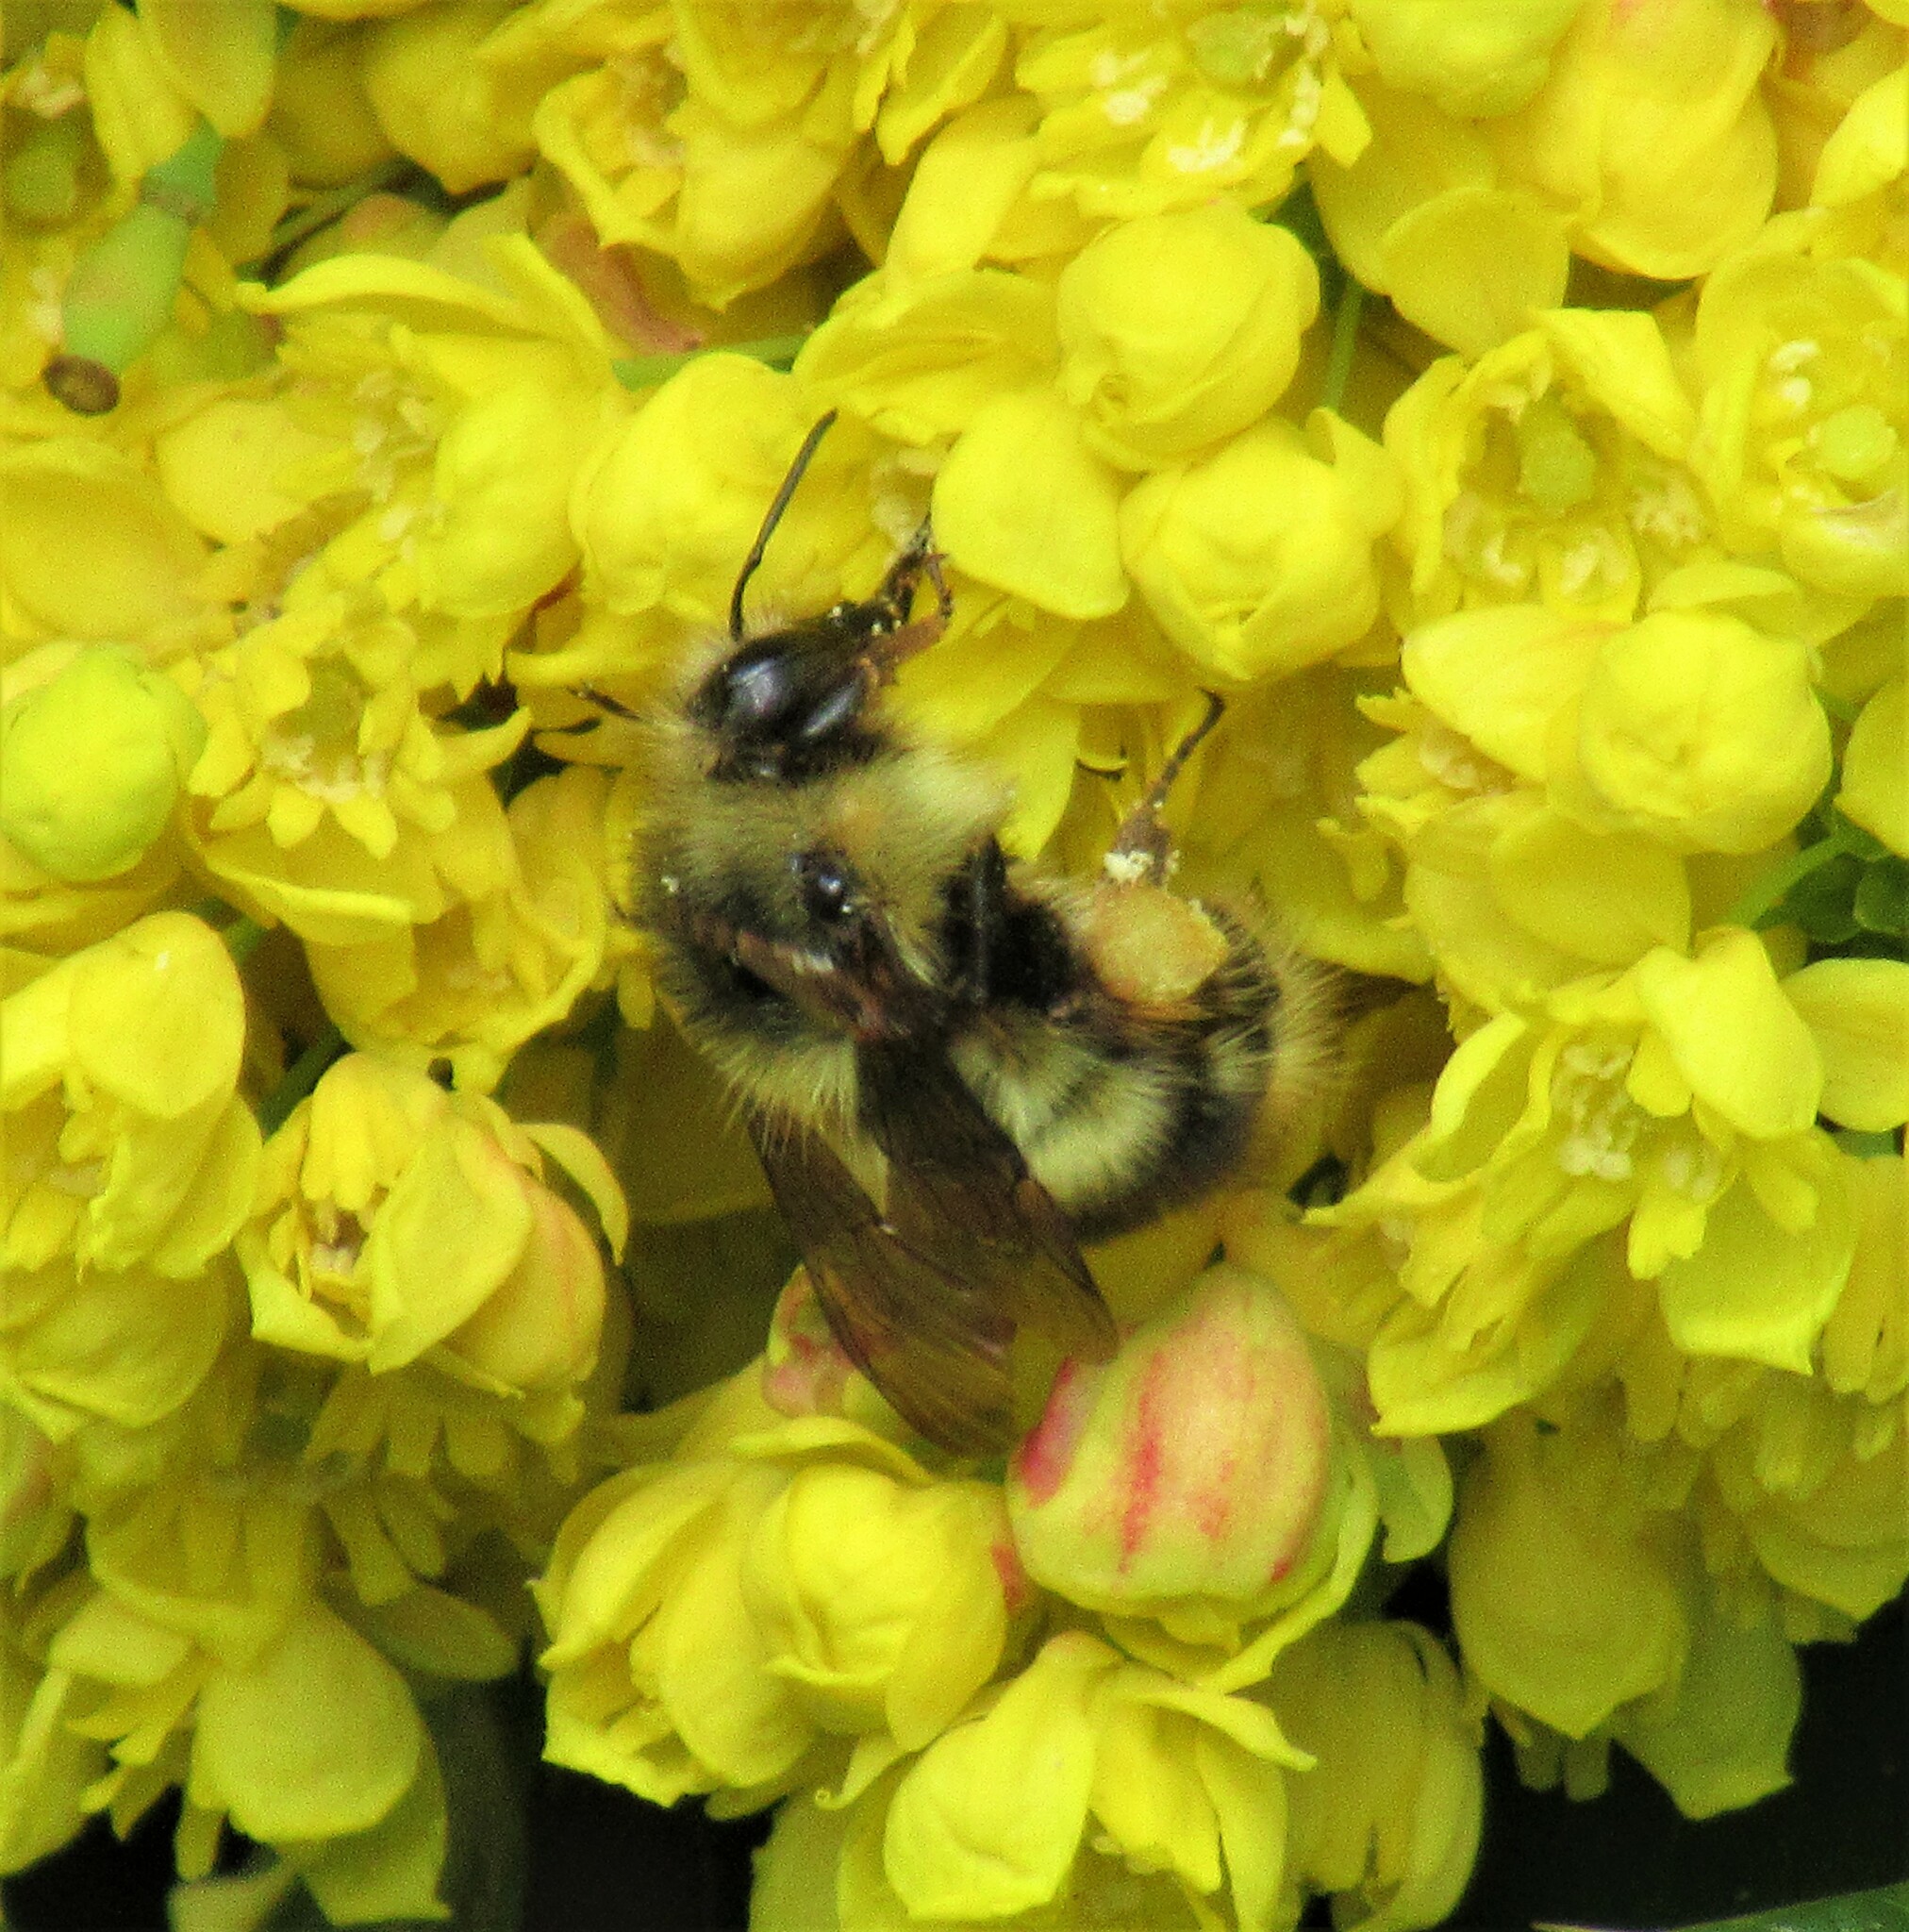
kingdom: Animalia
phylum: Arthropoda
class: Insecta
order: Hymenoptera
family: Apidae
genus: Bombus
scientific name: Bombus mixtus
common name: Fuzzy-horned bumble bee
